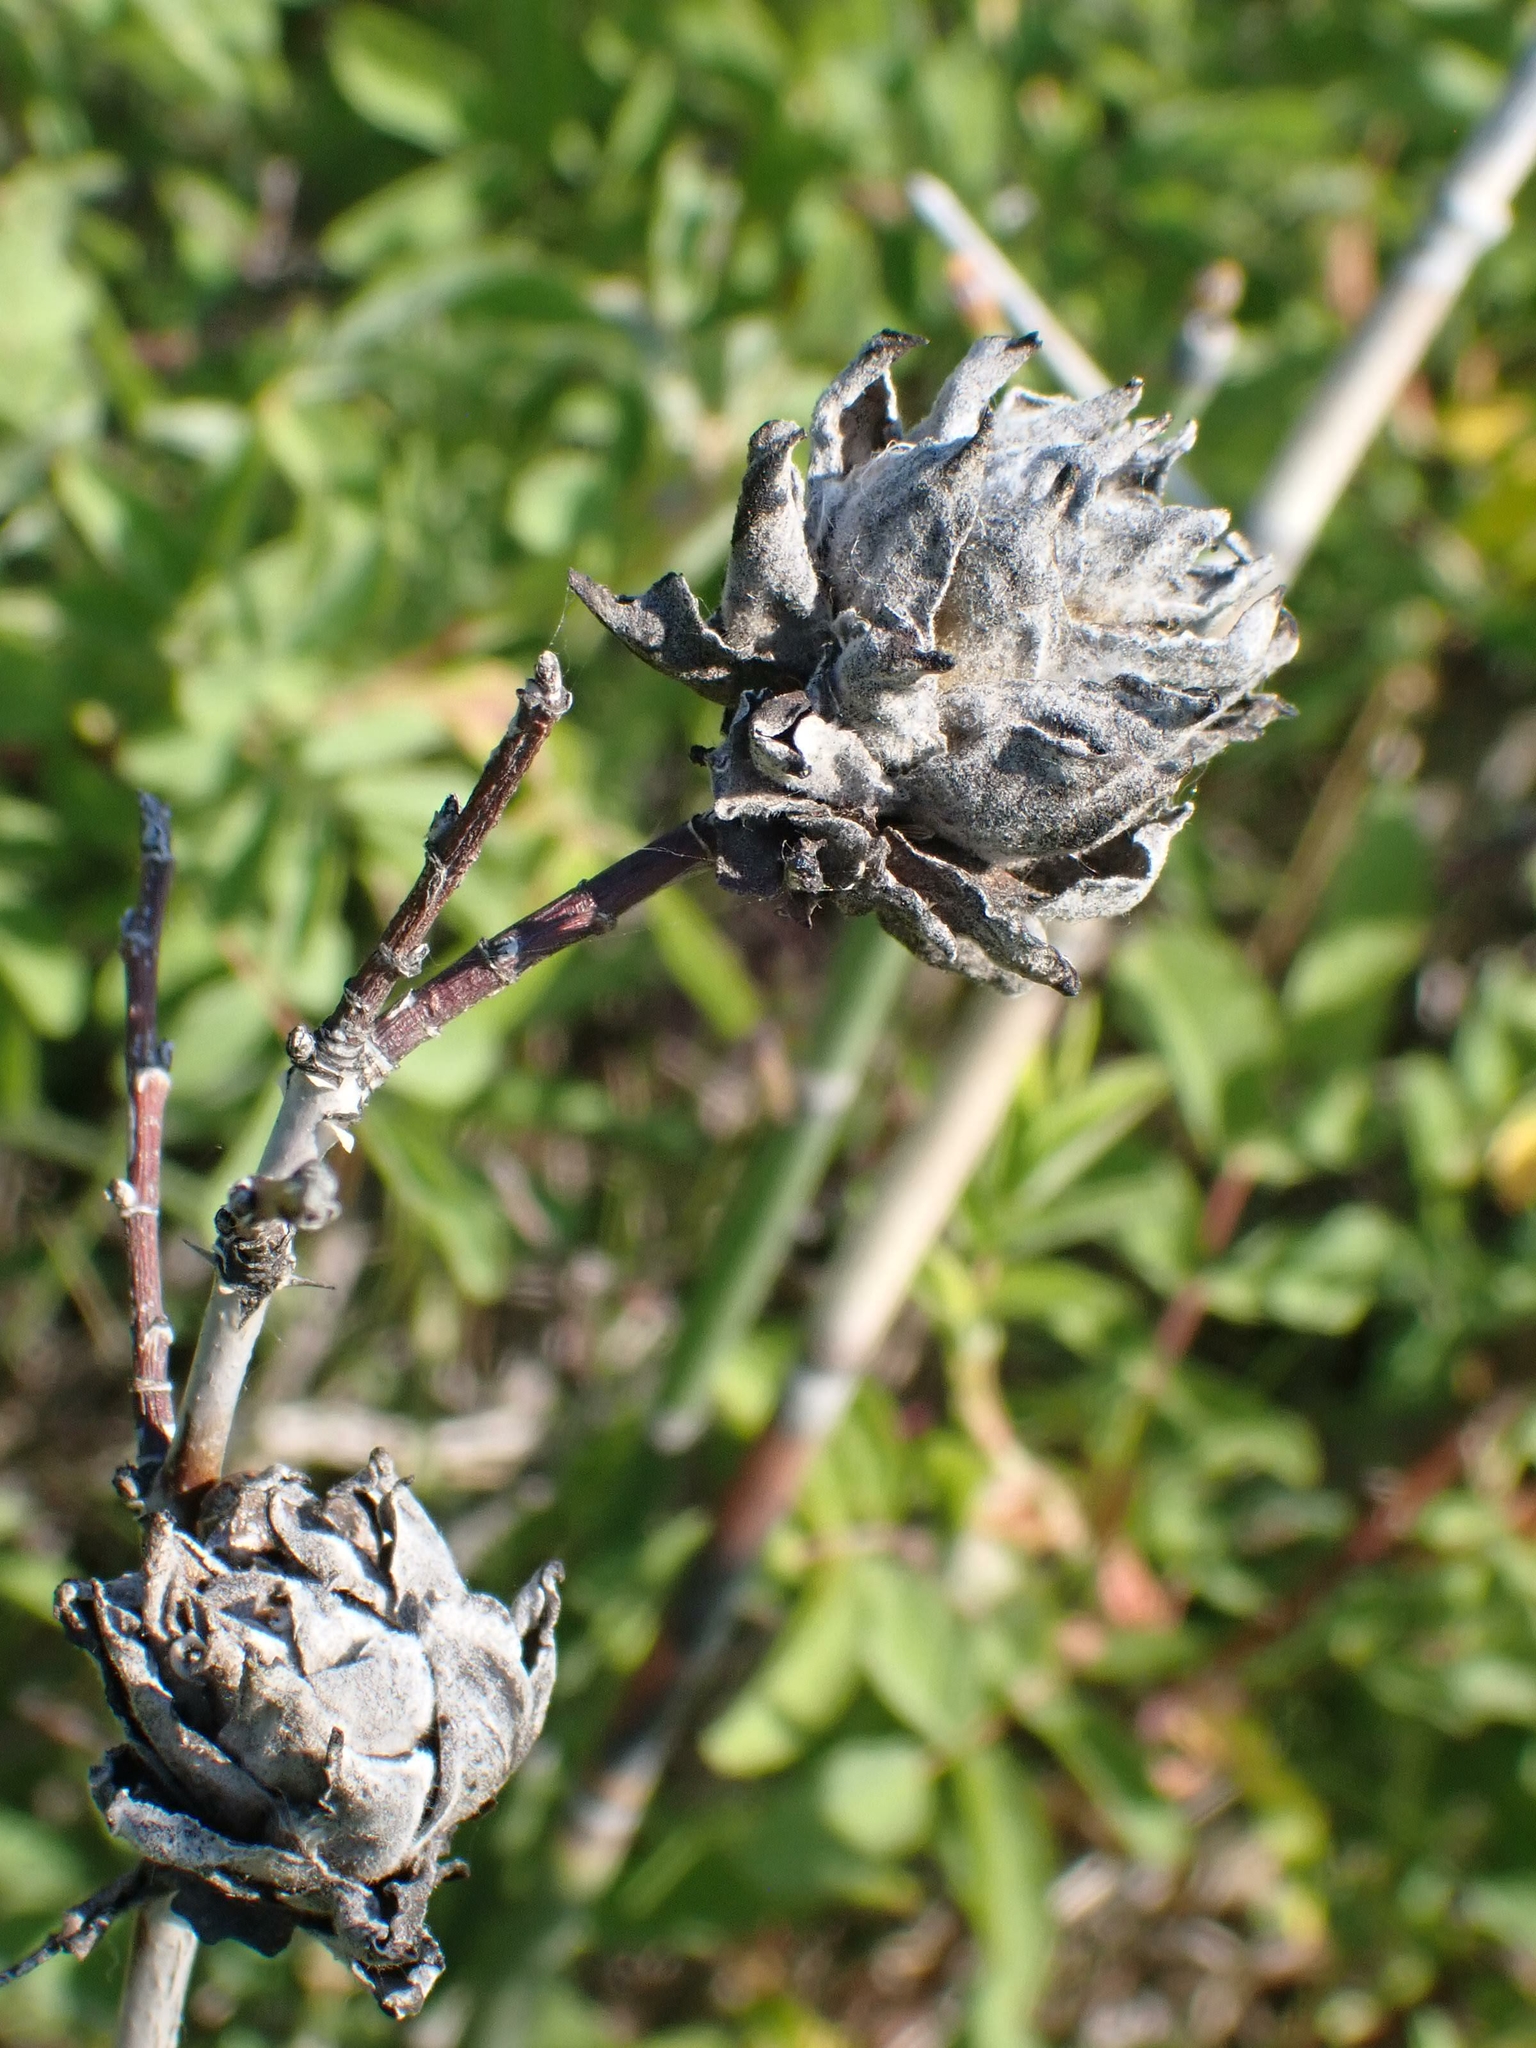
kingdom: Animalia
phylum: Arthropoda
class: Insecta
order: Diptera
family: Cecidomyiidae
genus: Rabdophaga
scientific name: Rabdophaga rosacea
